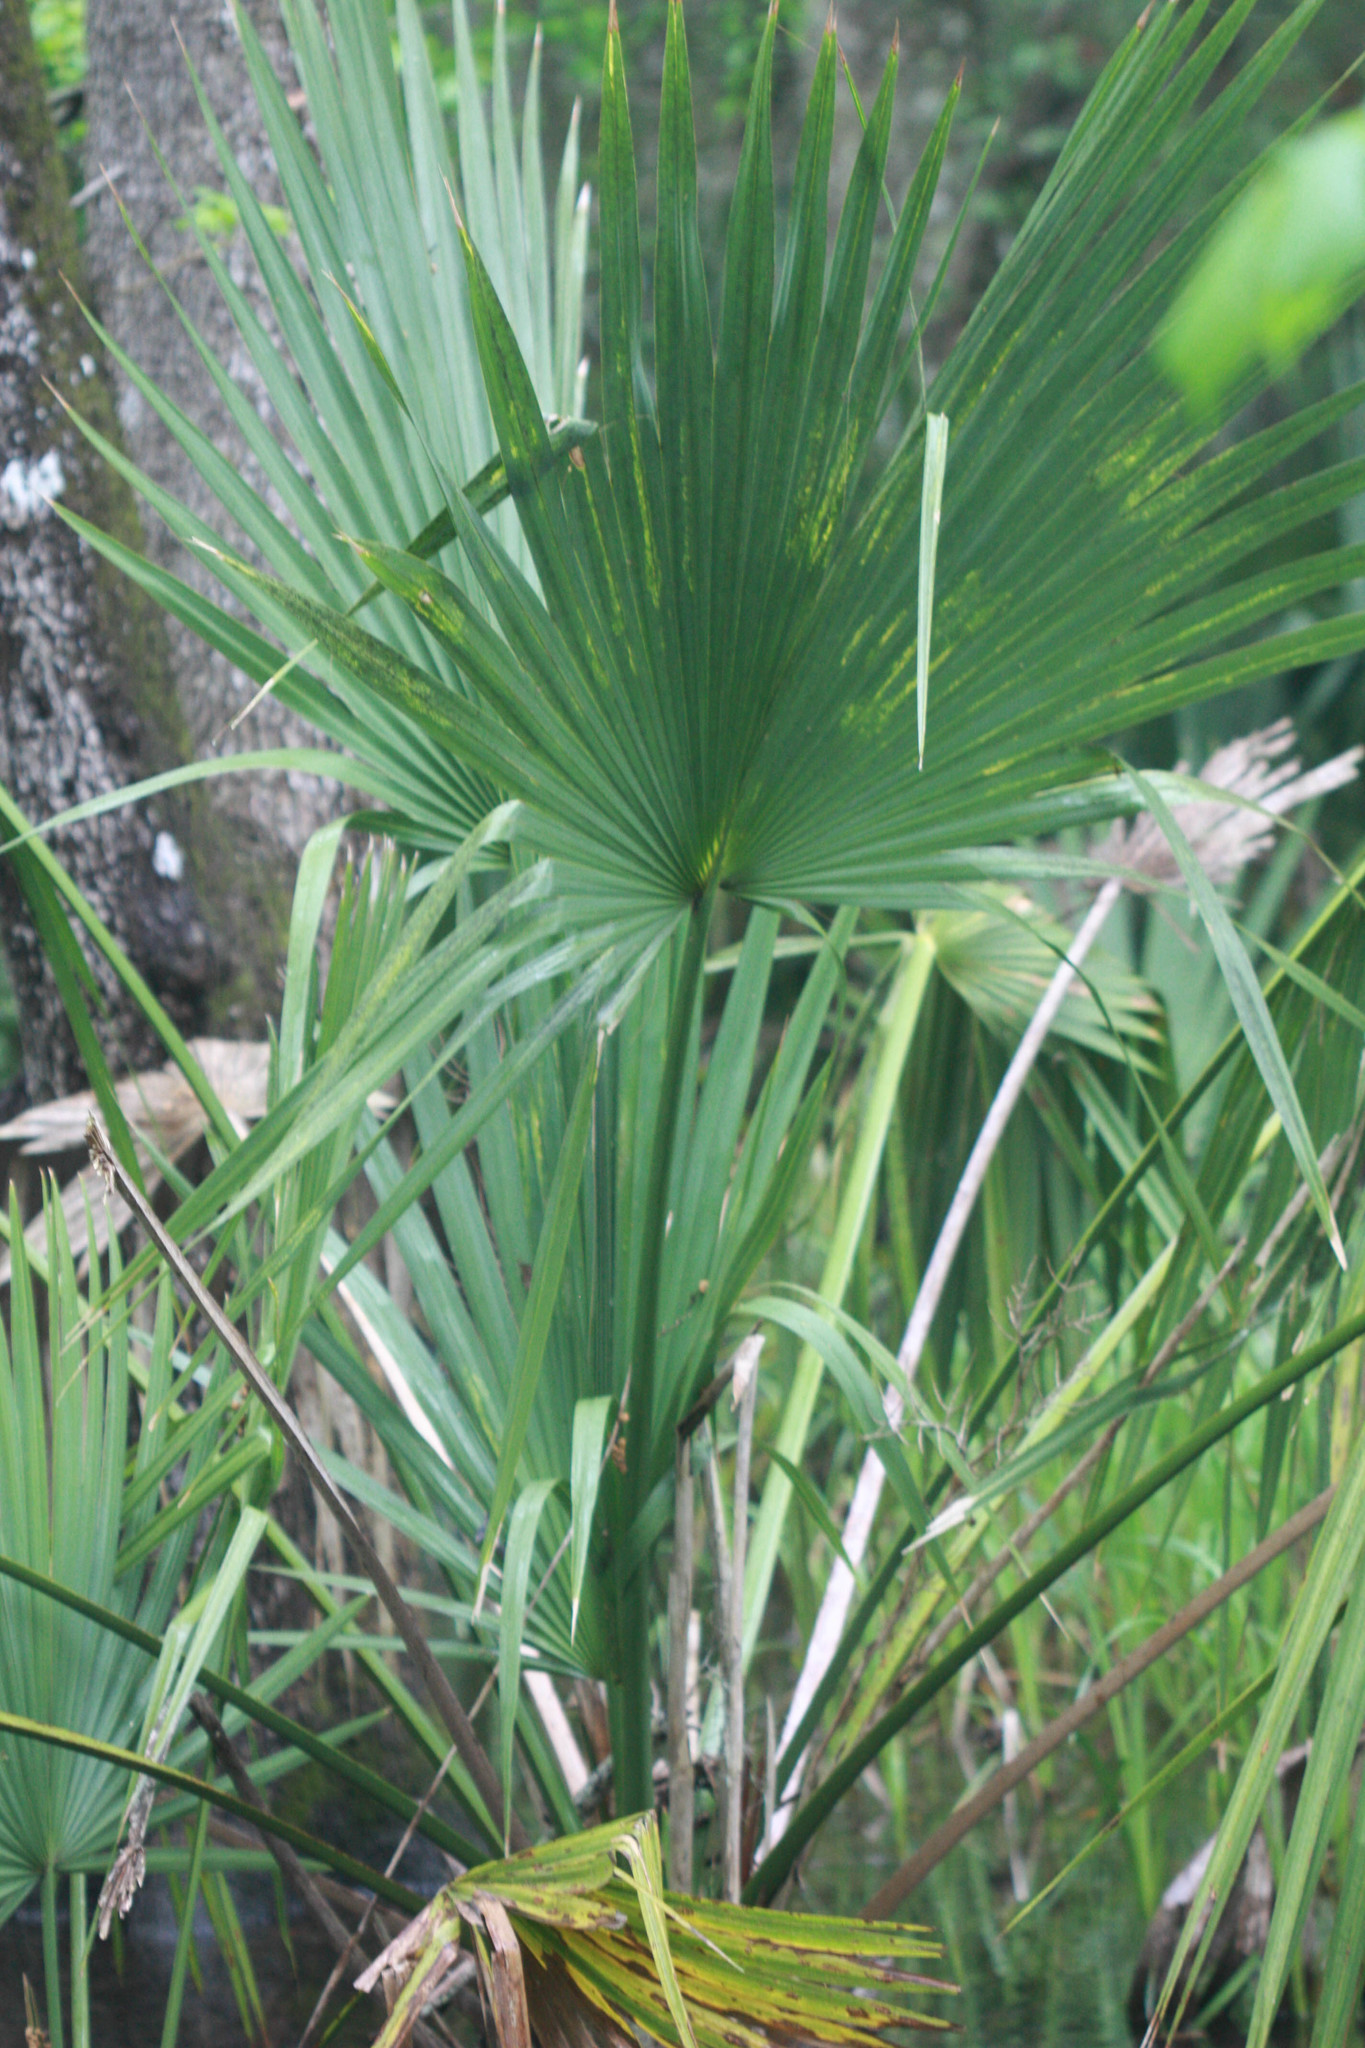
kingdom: Plantae
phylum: Tracheophyta
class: Liliopsida
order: Arecales
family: Arecaceae
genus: Sabal
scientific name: Sabal minor
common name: Dwarf palmetto
